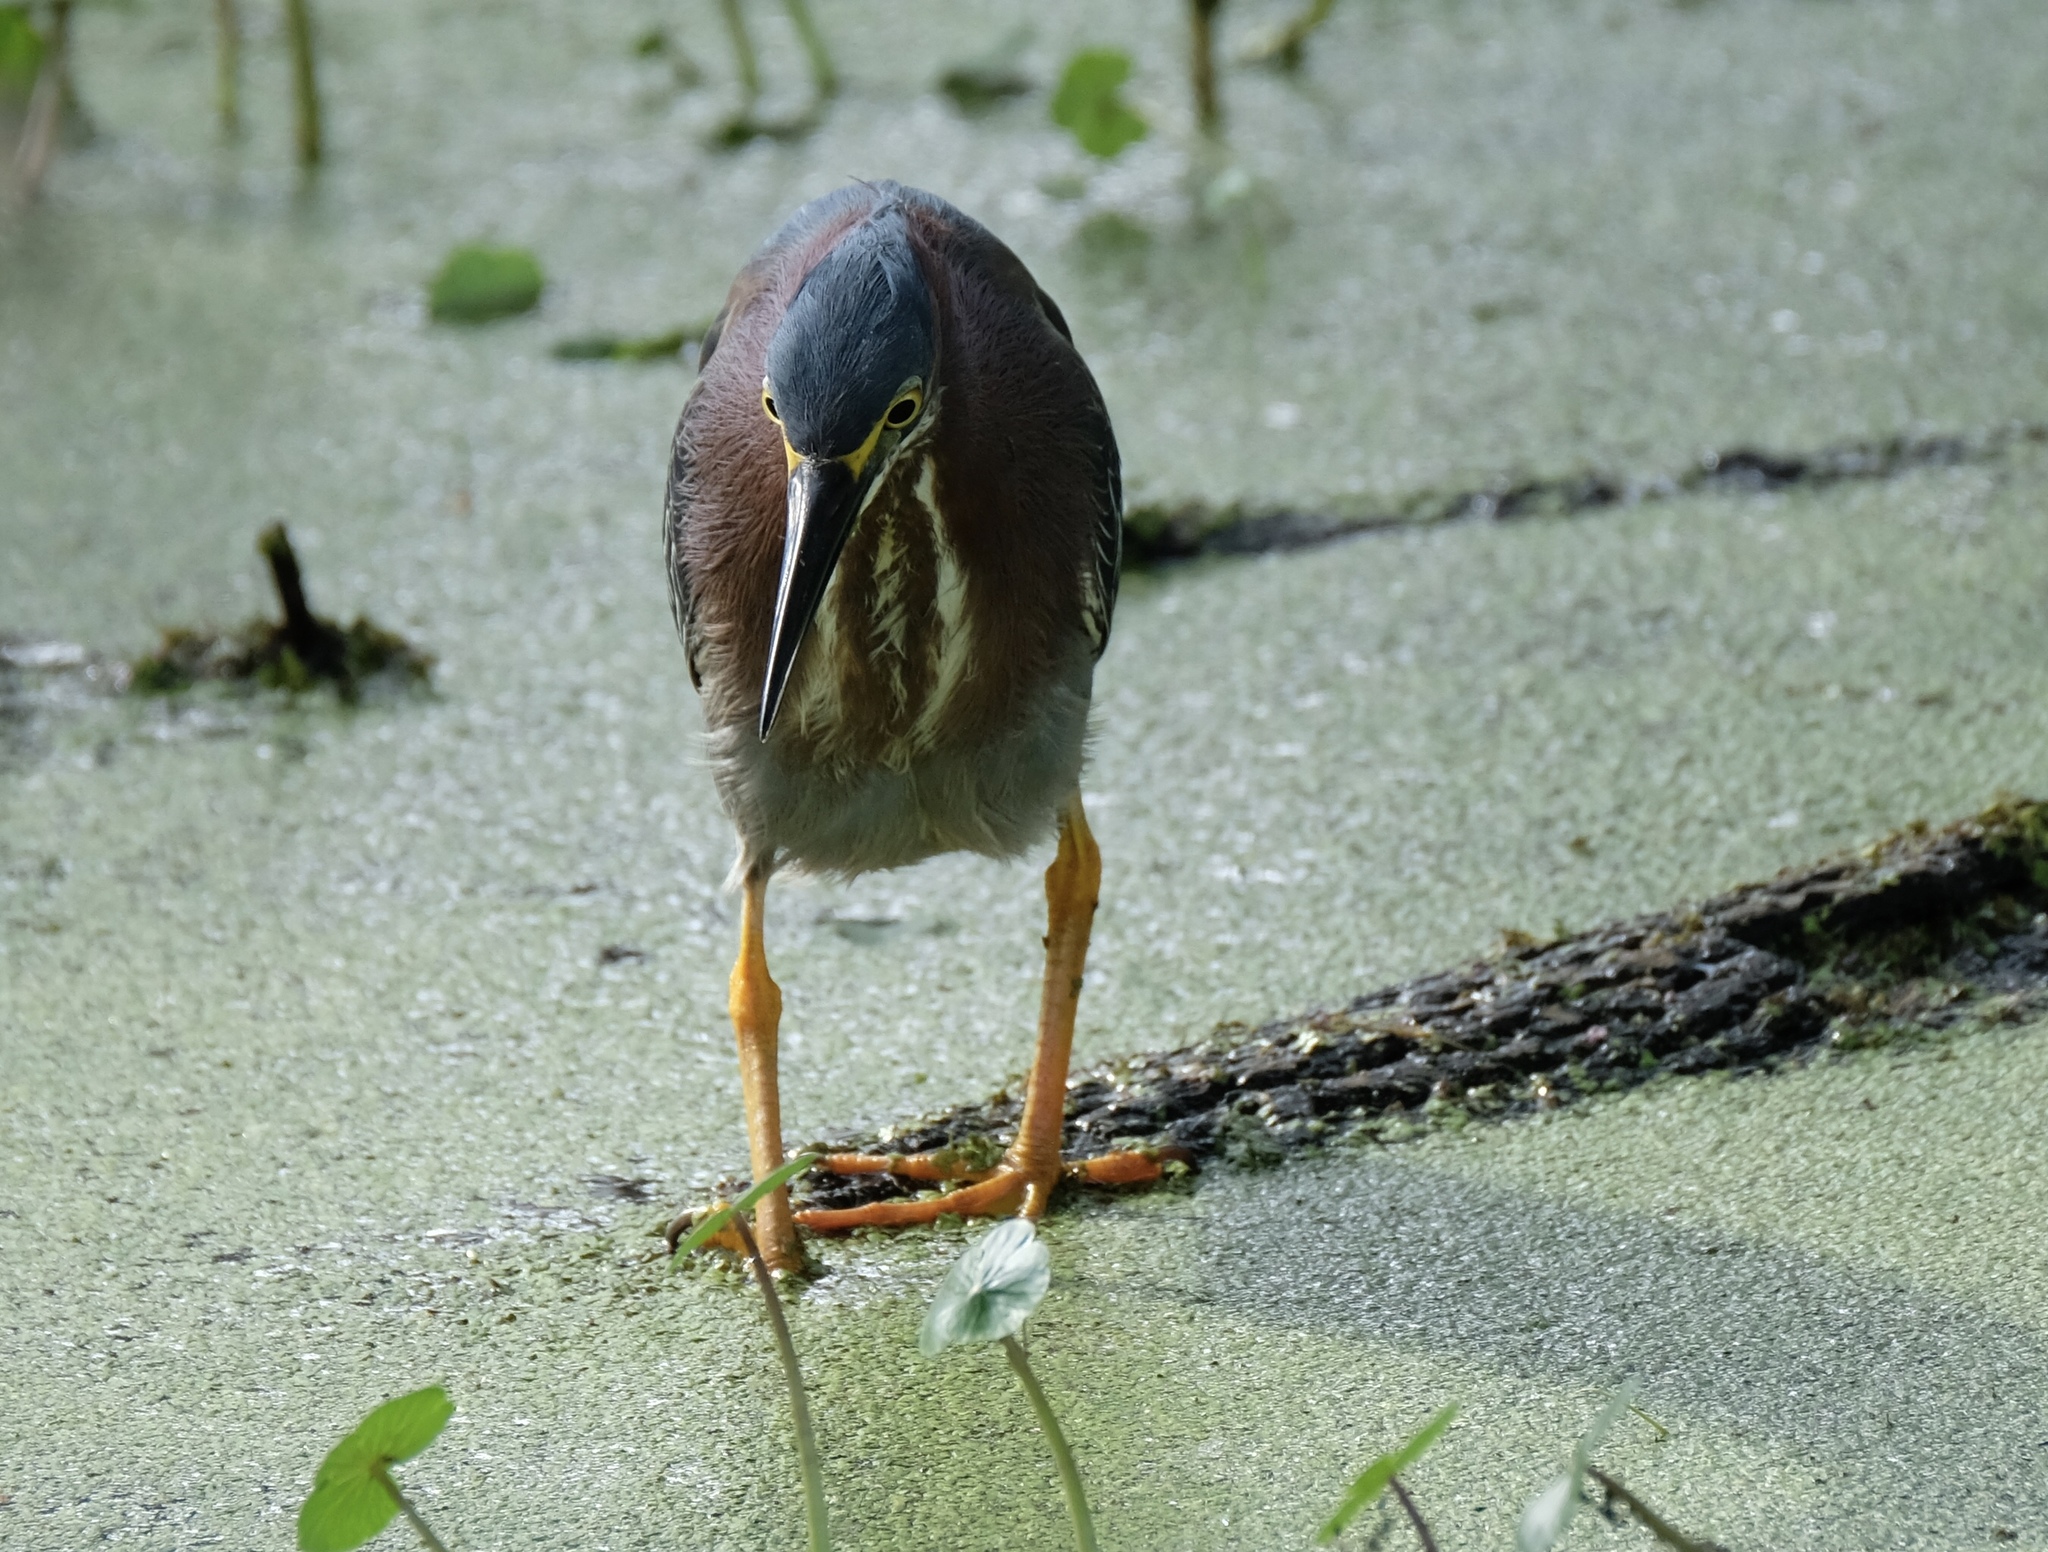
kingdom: Animalia
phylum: Chordata
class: Aves
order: Pelecaniformes
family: Ardeidae
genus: Butorides
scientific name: Butorides virescens
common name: Green heron
